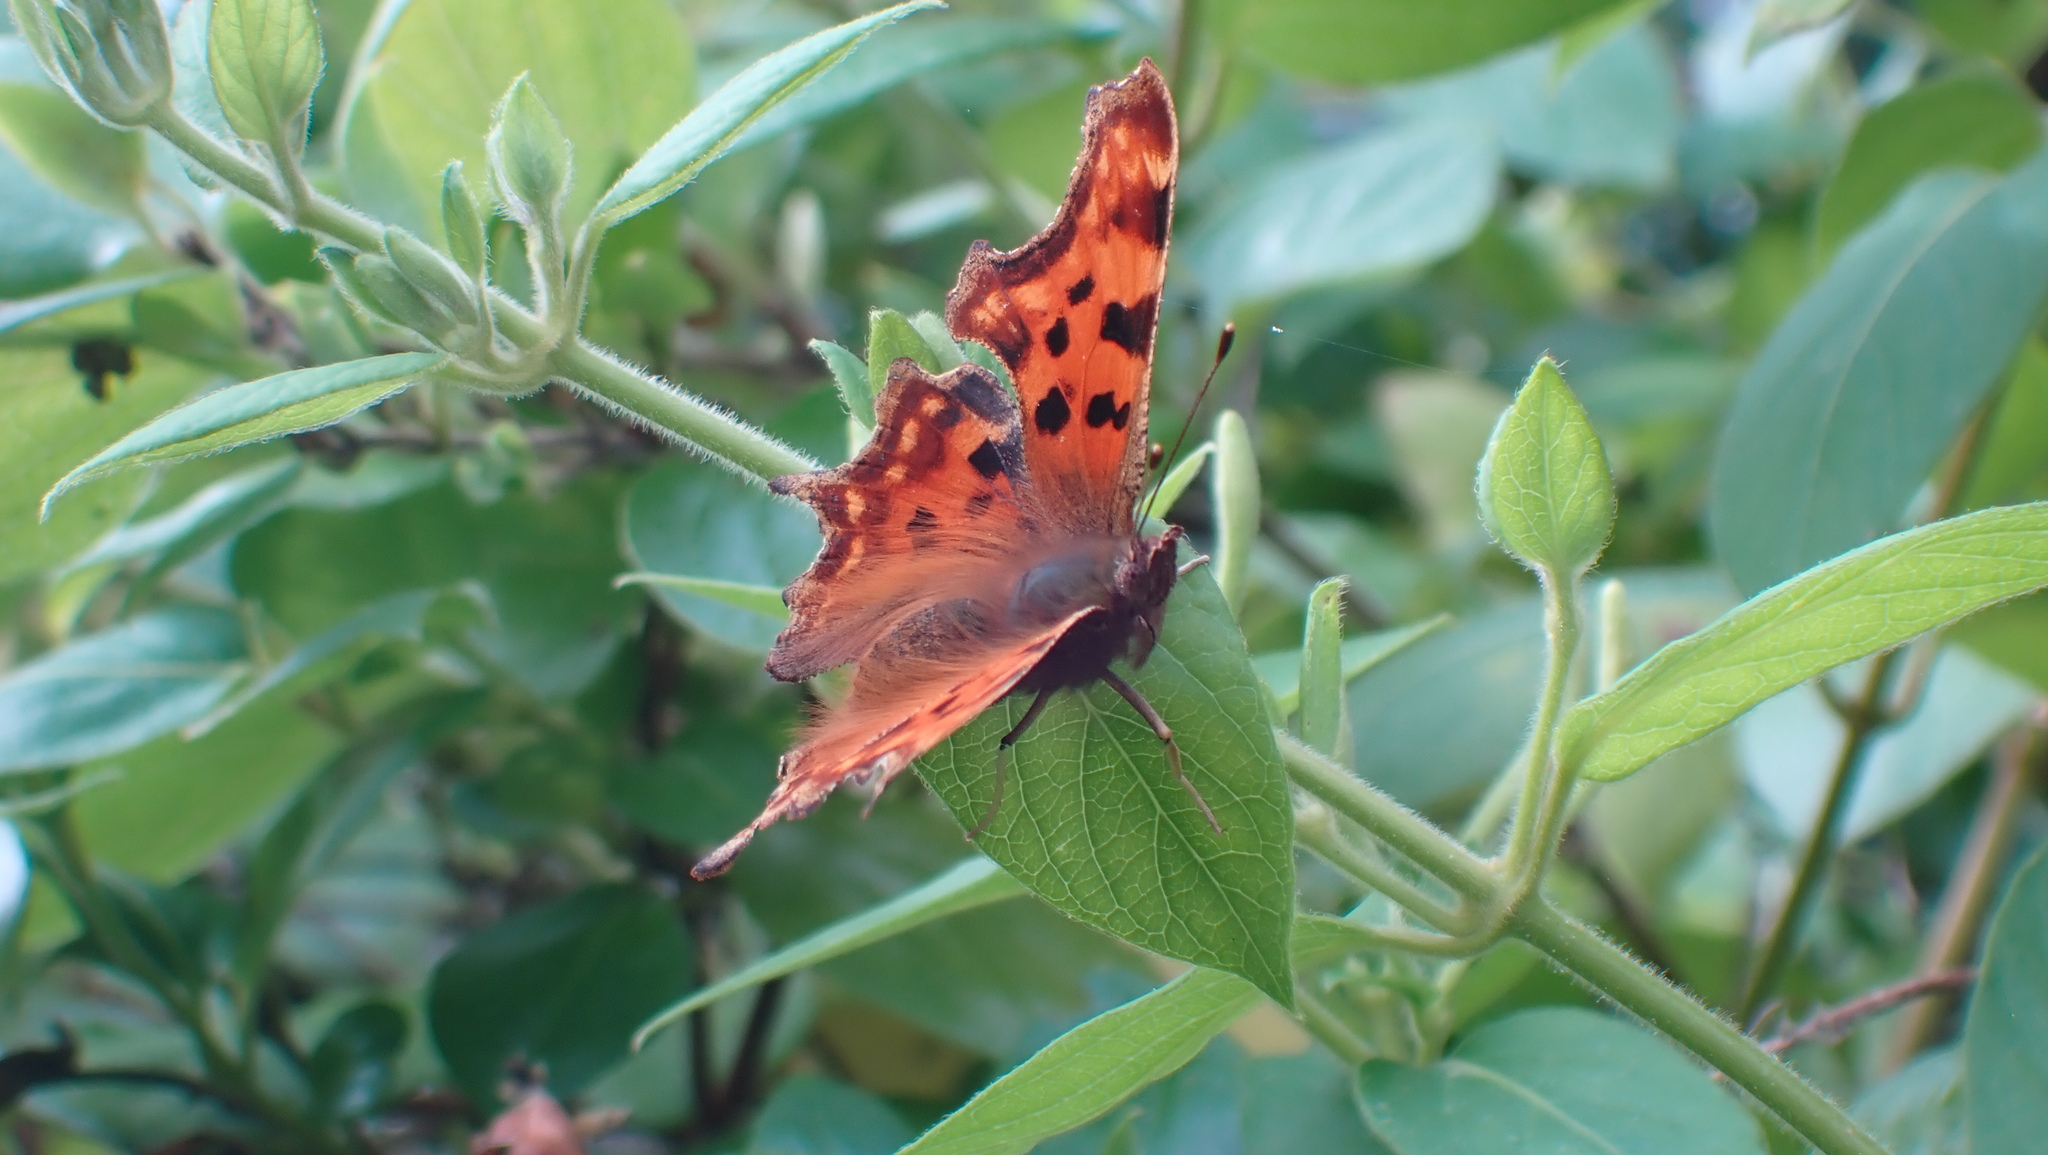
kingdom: Animalia
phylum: Arthropoda
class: Insecta
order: Lepidoptera
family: Nymphalidae
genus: Polygonia
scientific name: Polygonia c-album
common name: Comma
